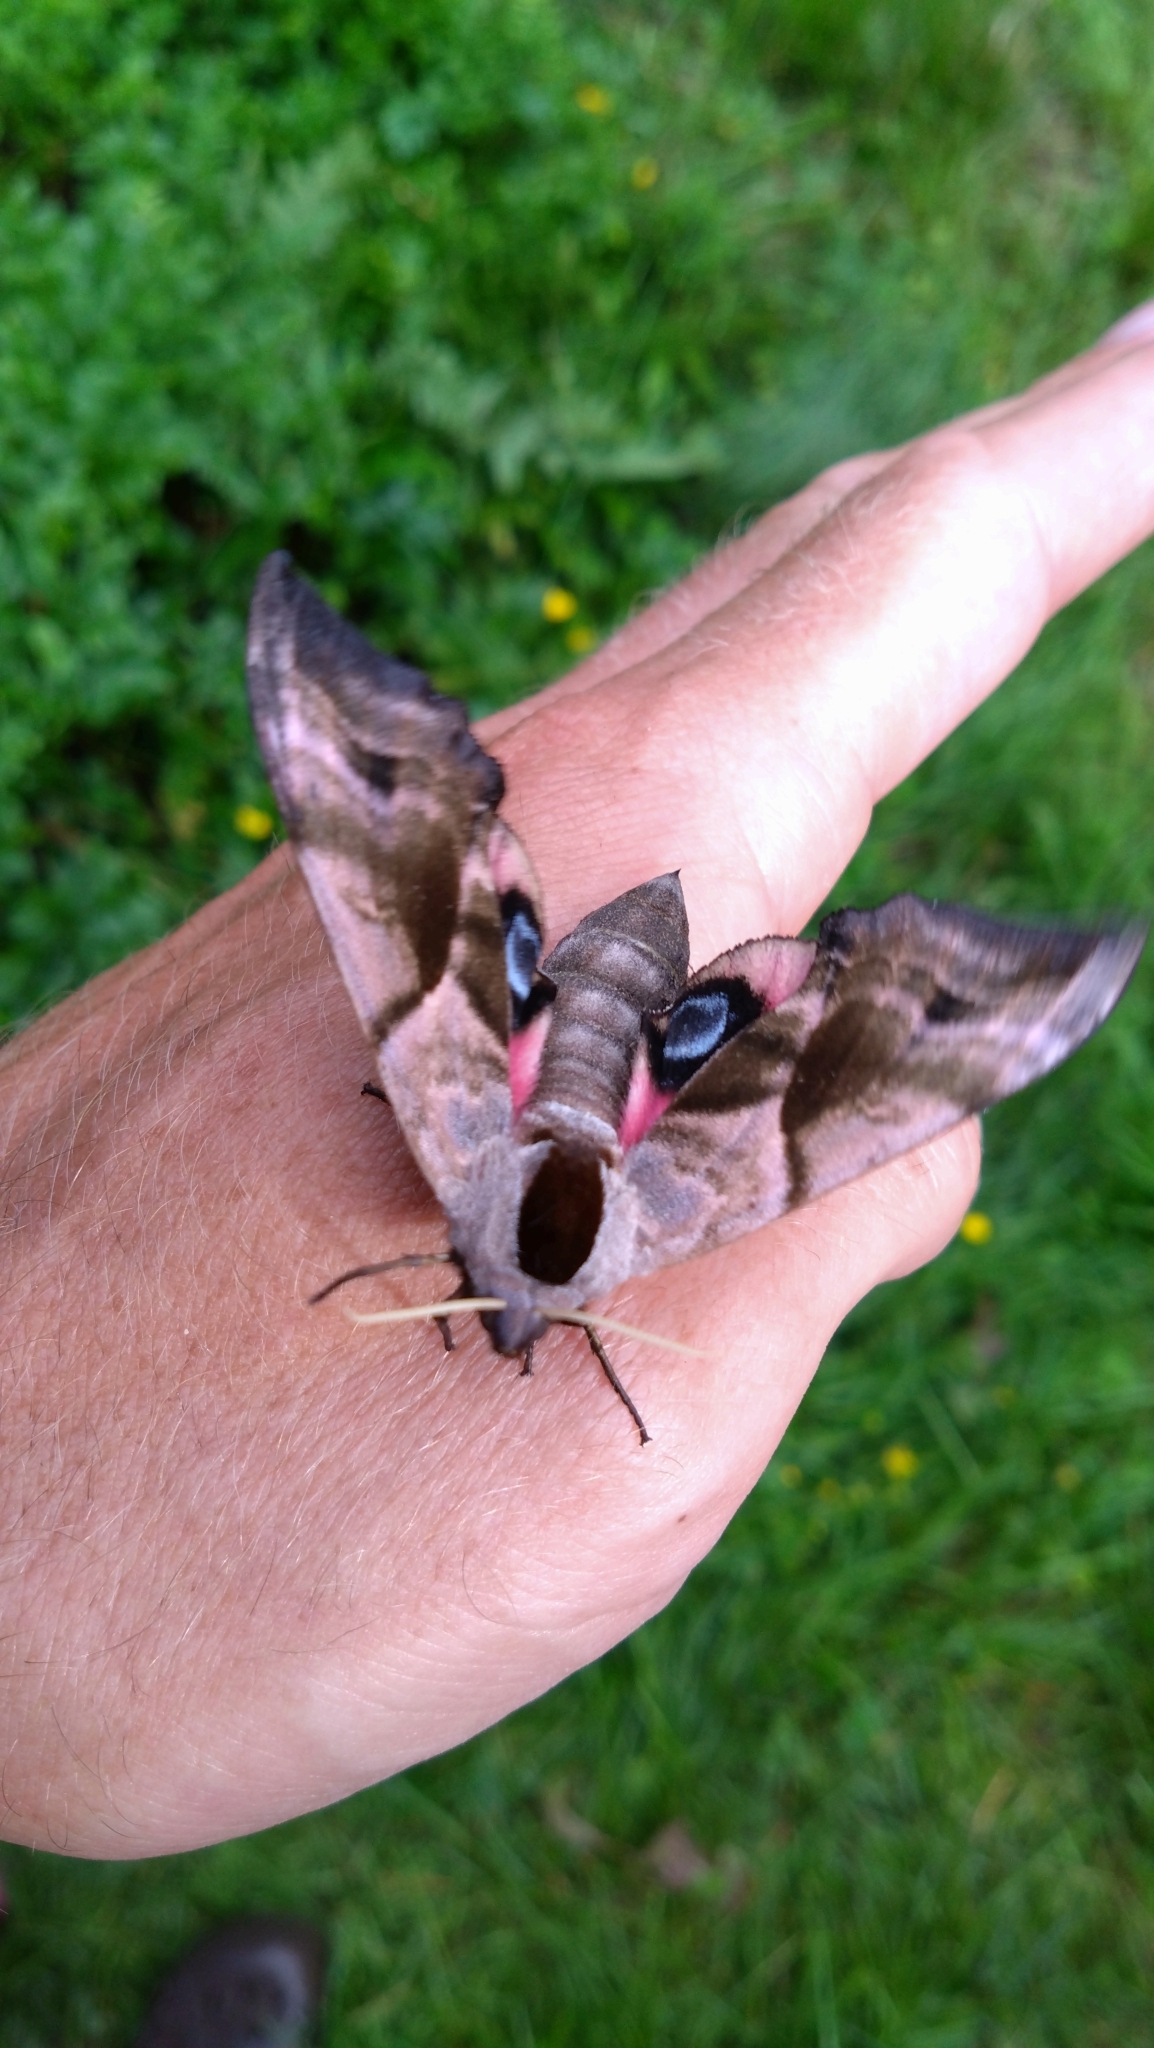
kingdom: Animalia
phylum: Arthropoda
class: Insecta
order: Lepidoptera
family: Sphingidae
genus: Smerinthus
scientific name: Smerinthus ocellata
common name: Eyed hawk-moth
